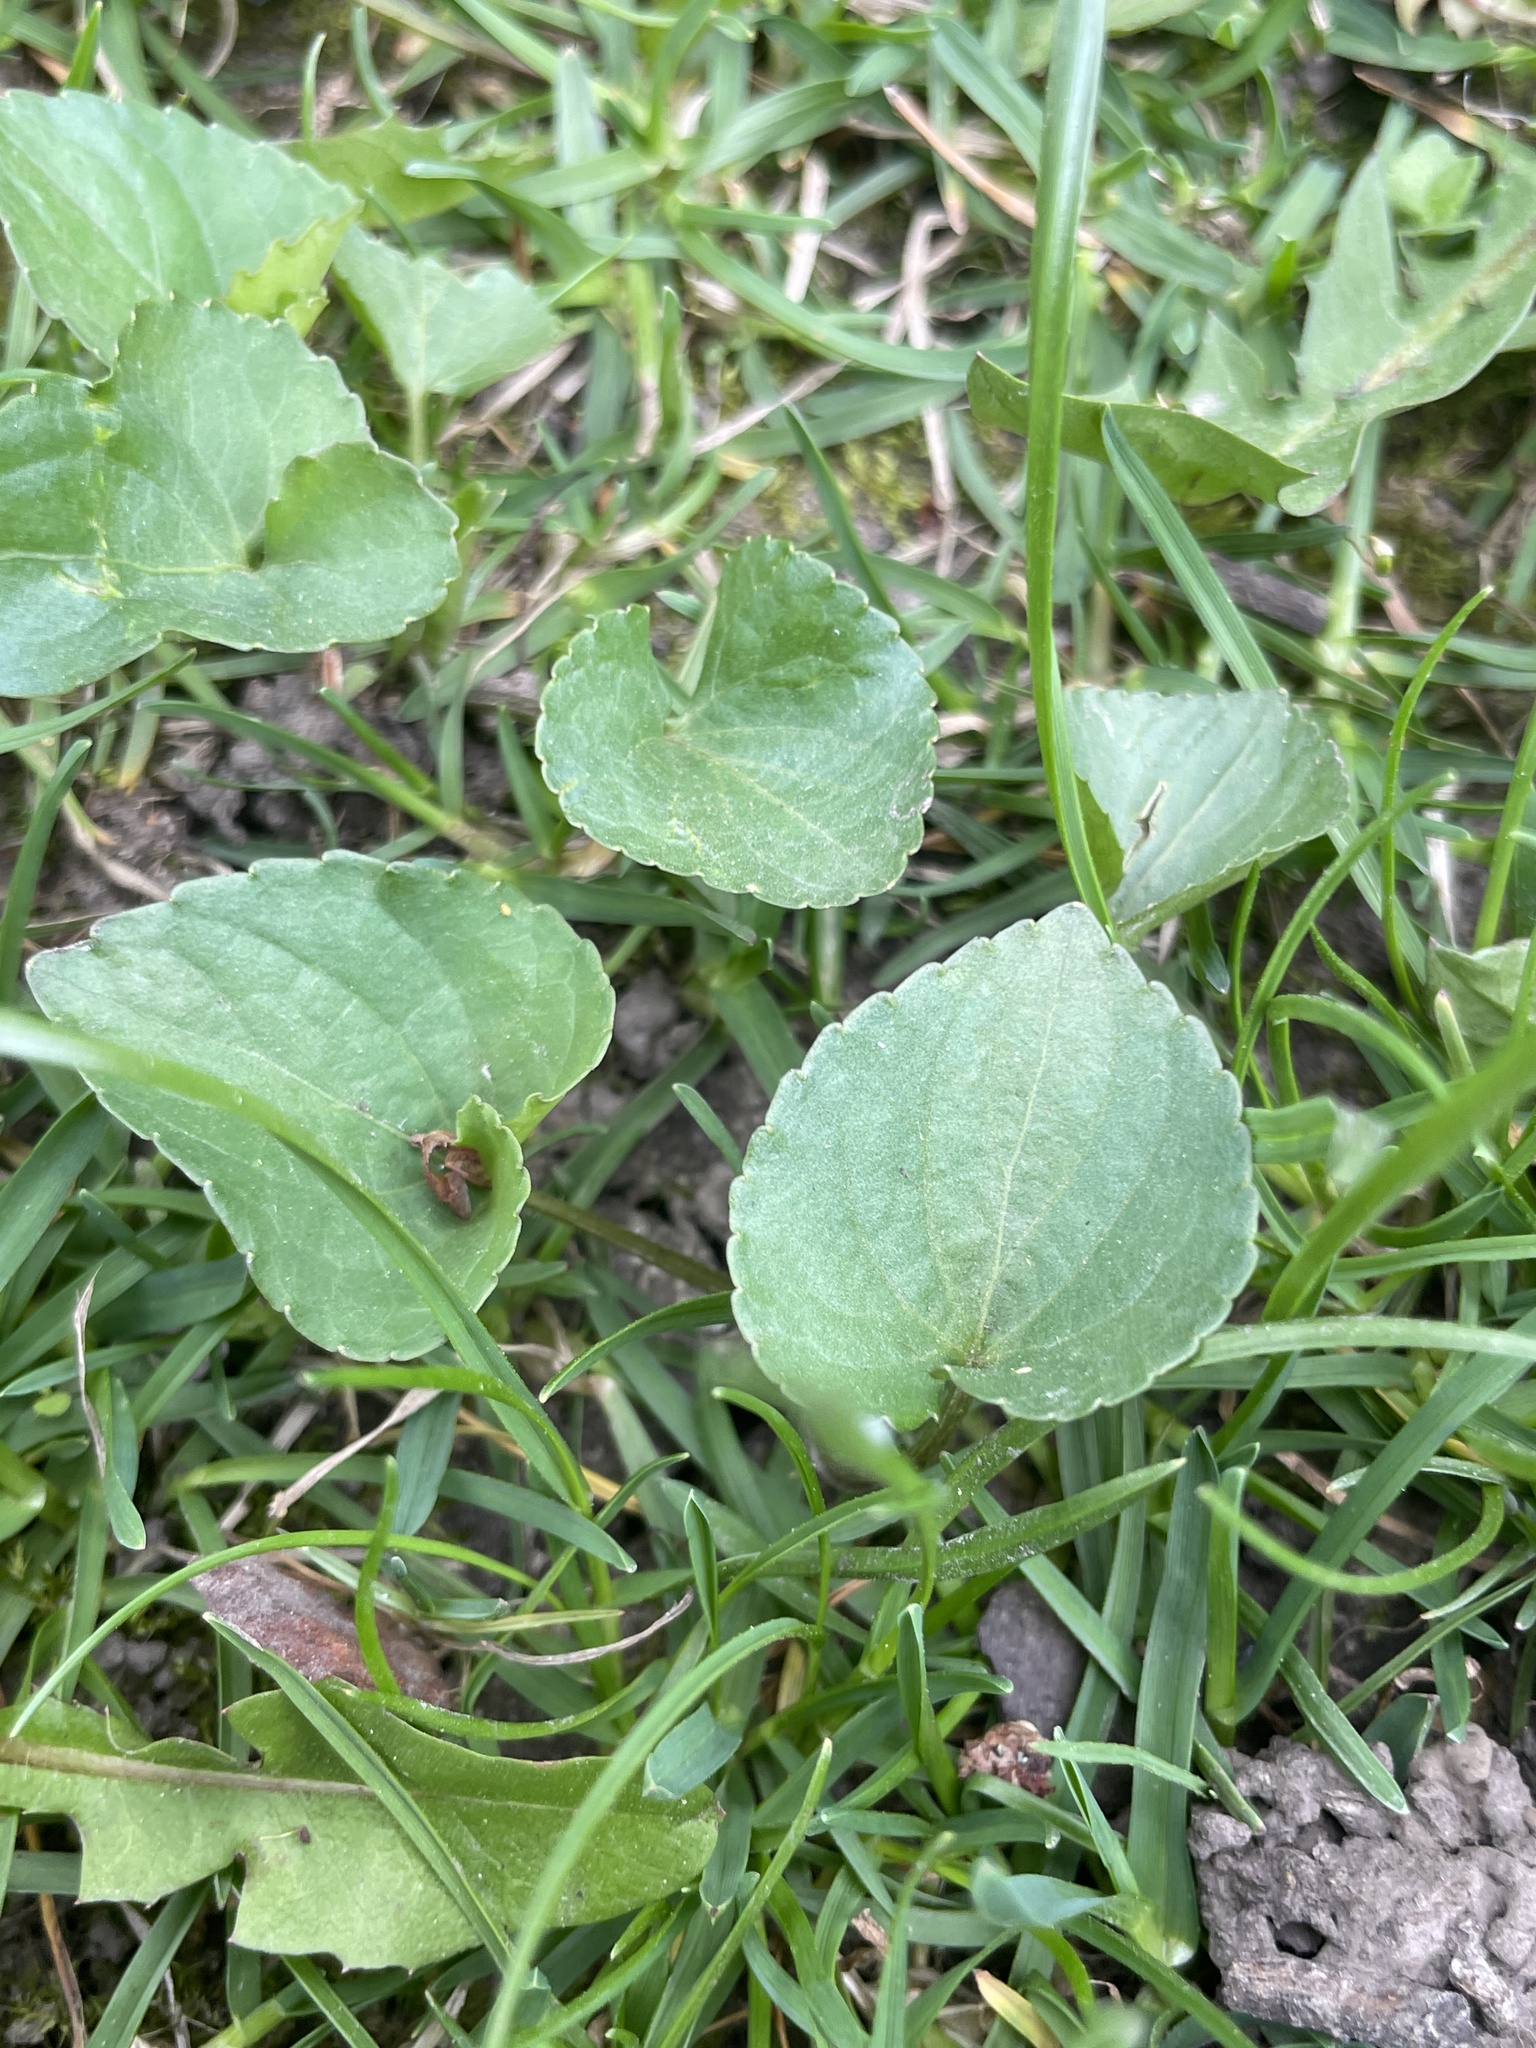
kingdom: Plantae
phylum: Tracheophyta
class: Magnoliopsida
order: Malpighiales
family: Violaceae
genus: Viola
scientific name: Viola sororia
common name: Dooryard violet
